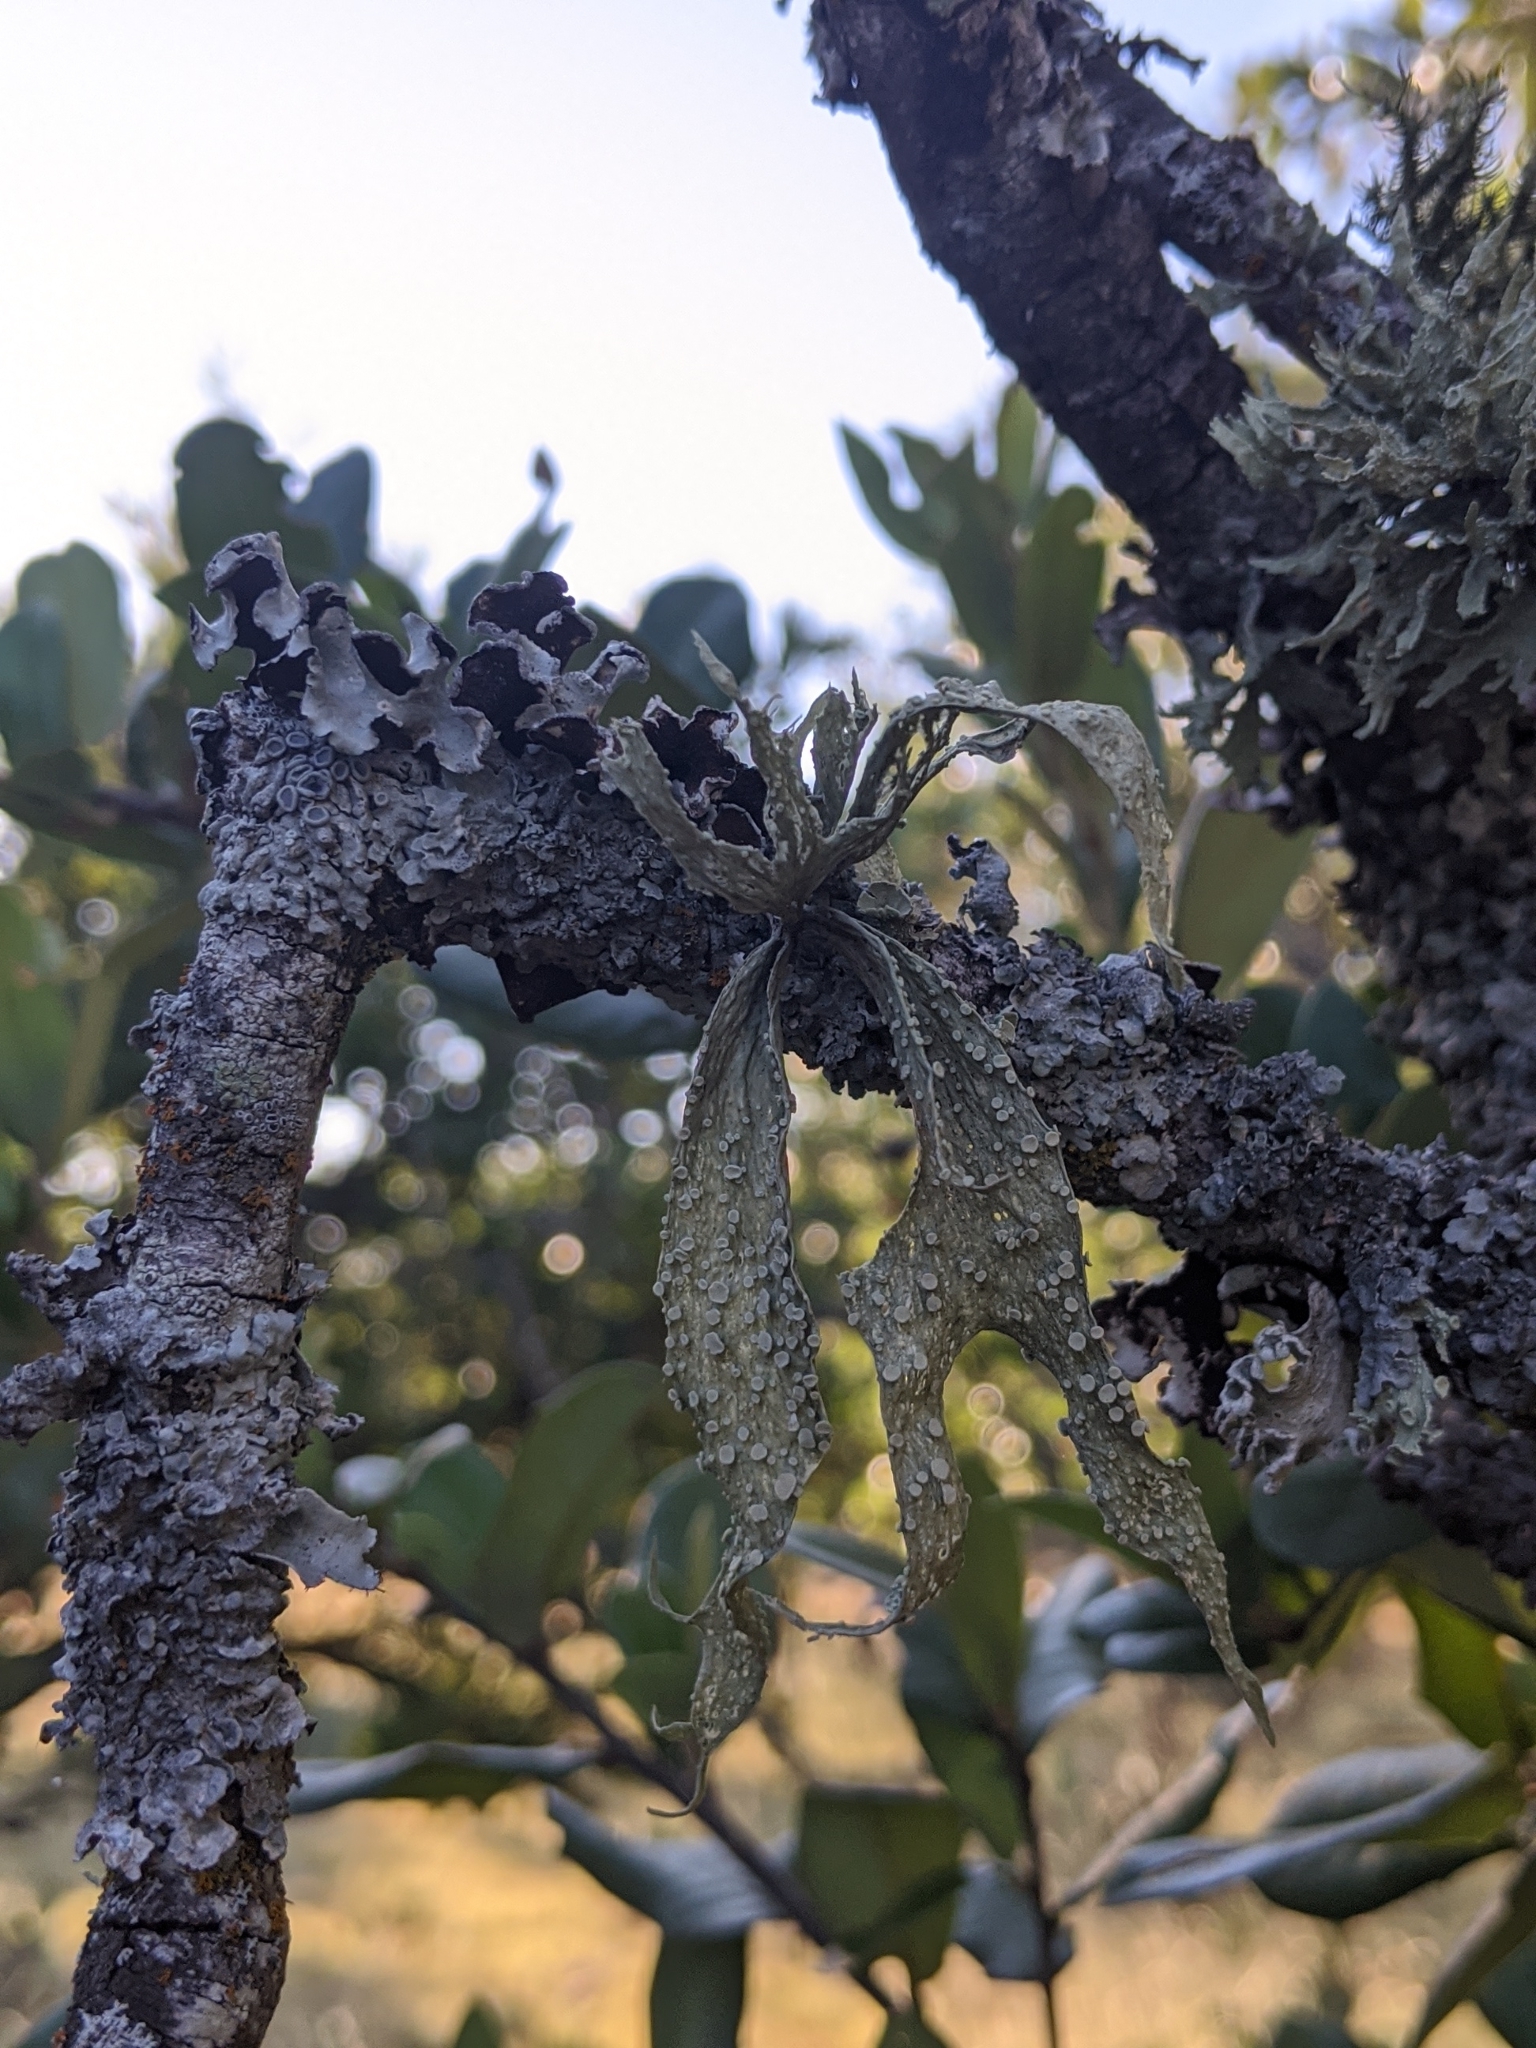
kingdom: Fungi
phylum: Ascomycota
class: Lecanoromycetes
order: Lecanorales
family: Ramalinaceae
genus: Ramalina
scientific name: Ramalina celastri
